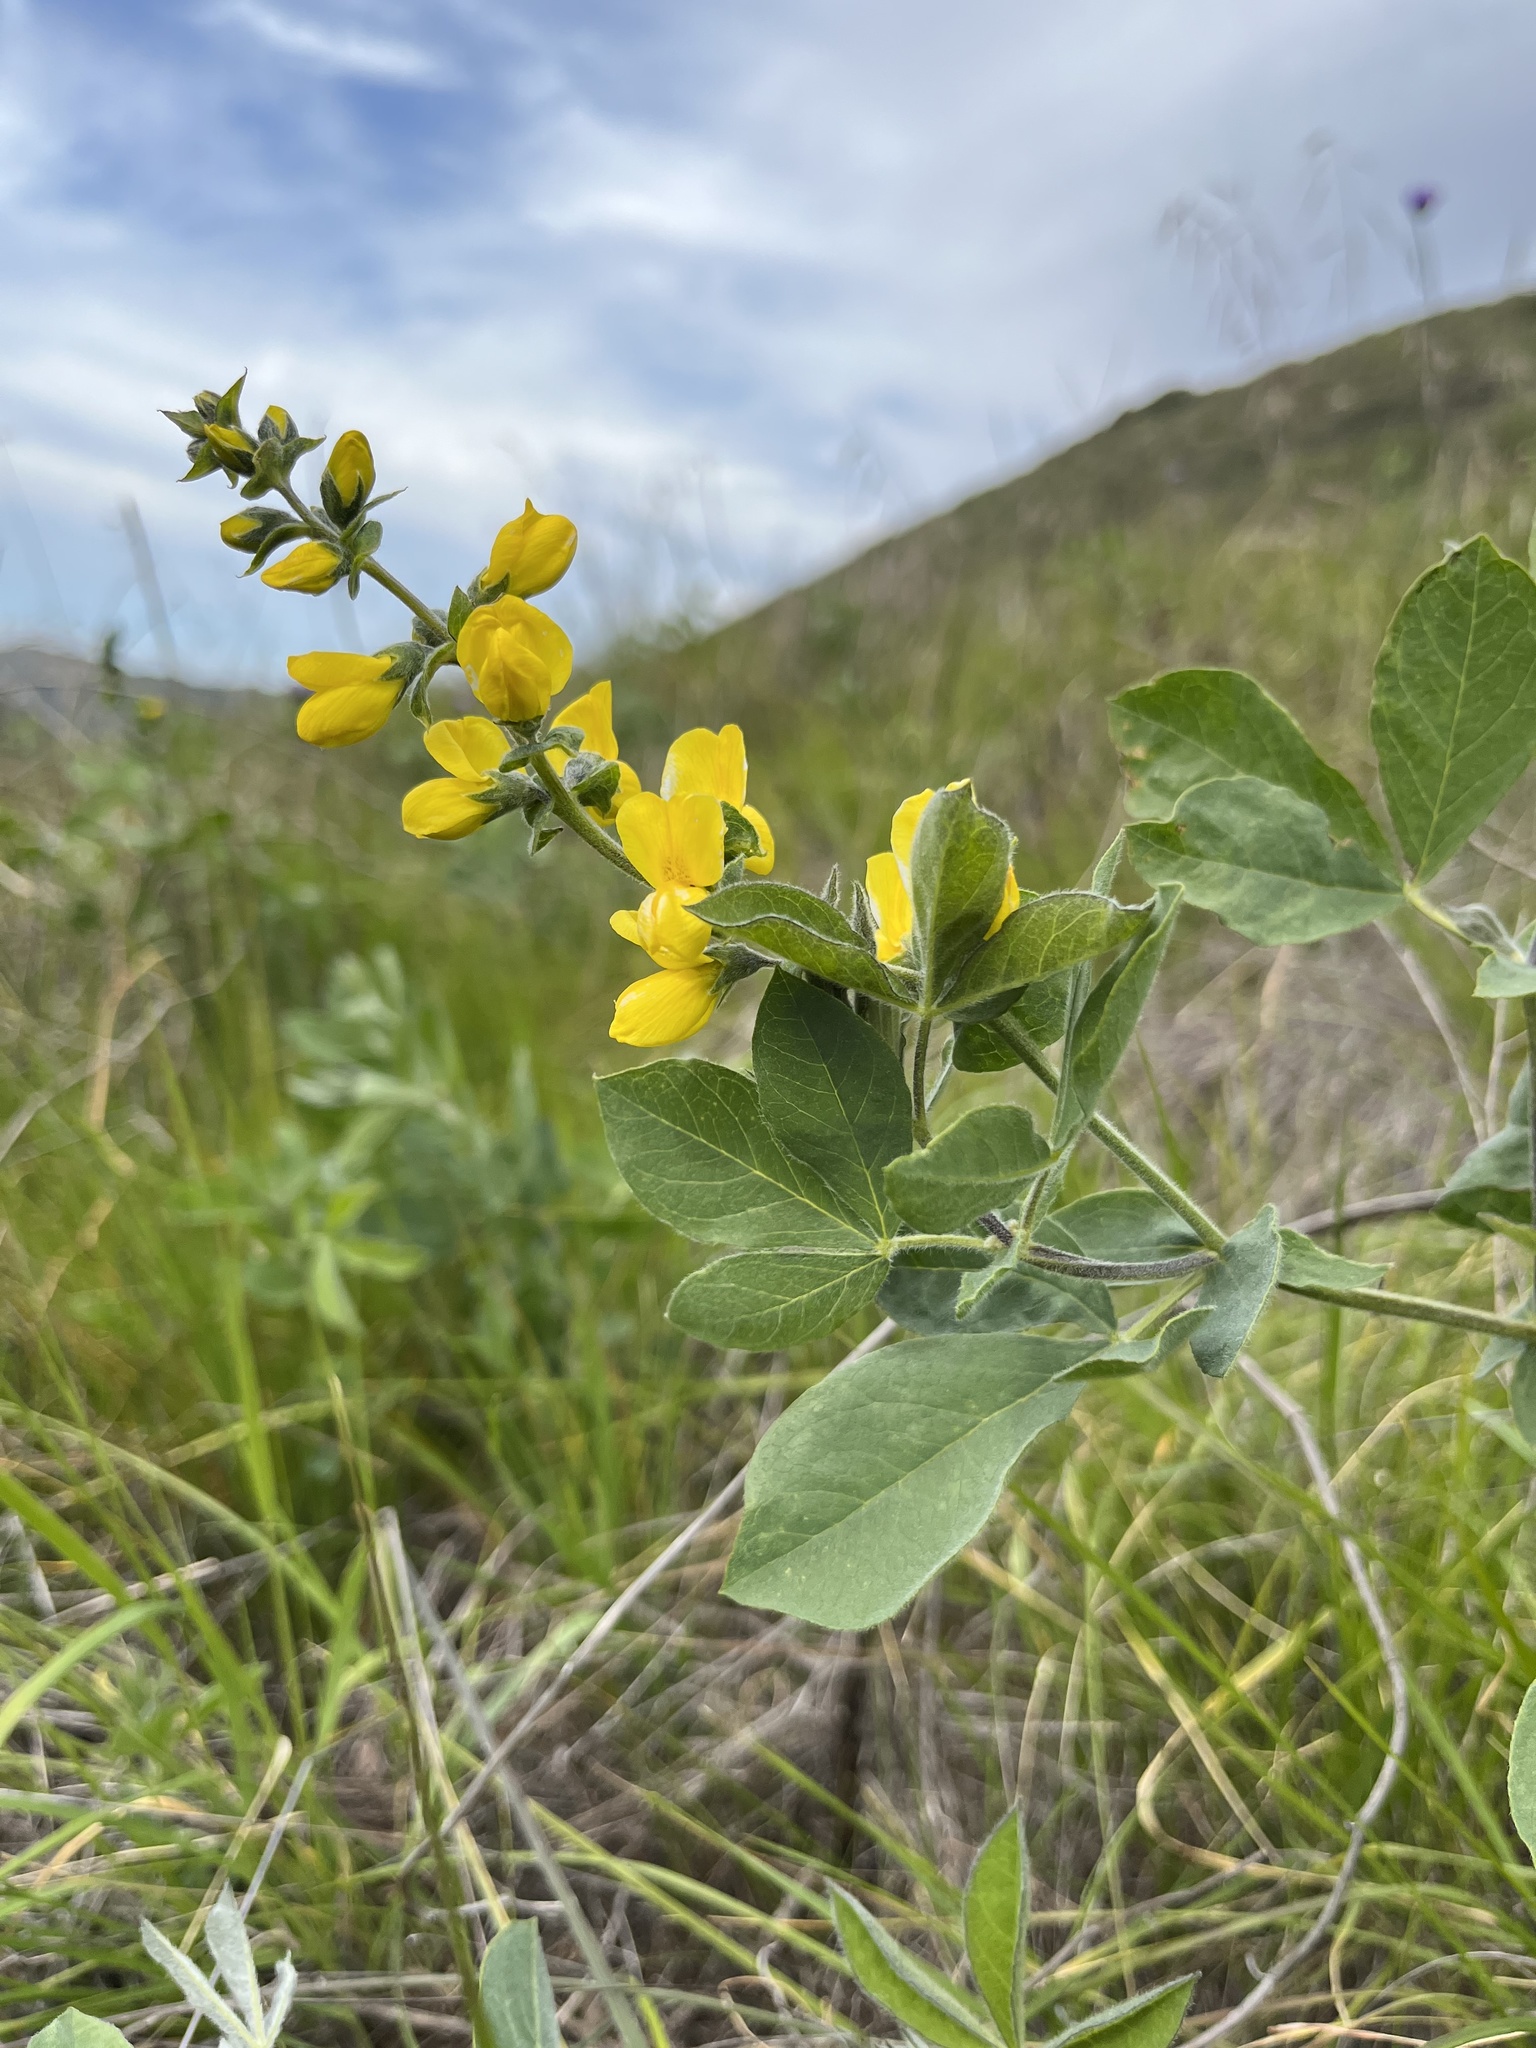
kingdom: Plantae
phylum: Tracheophyta
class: Magnoliopsida
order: Fabales
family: Fabaceae
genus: Thermopsis
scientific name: Thermopsis californica
